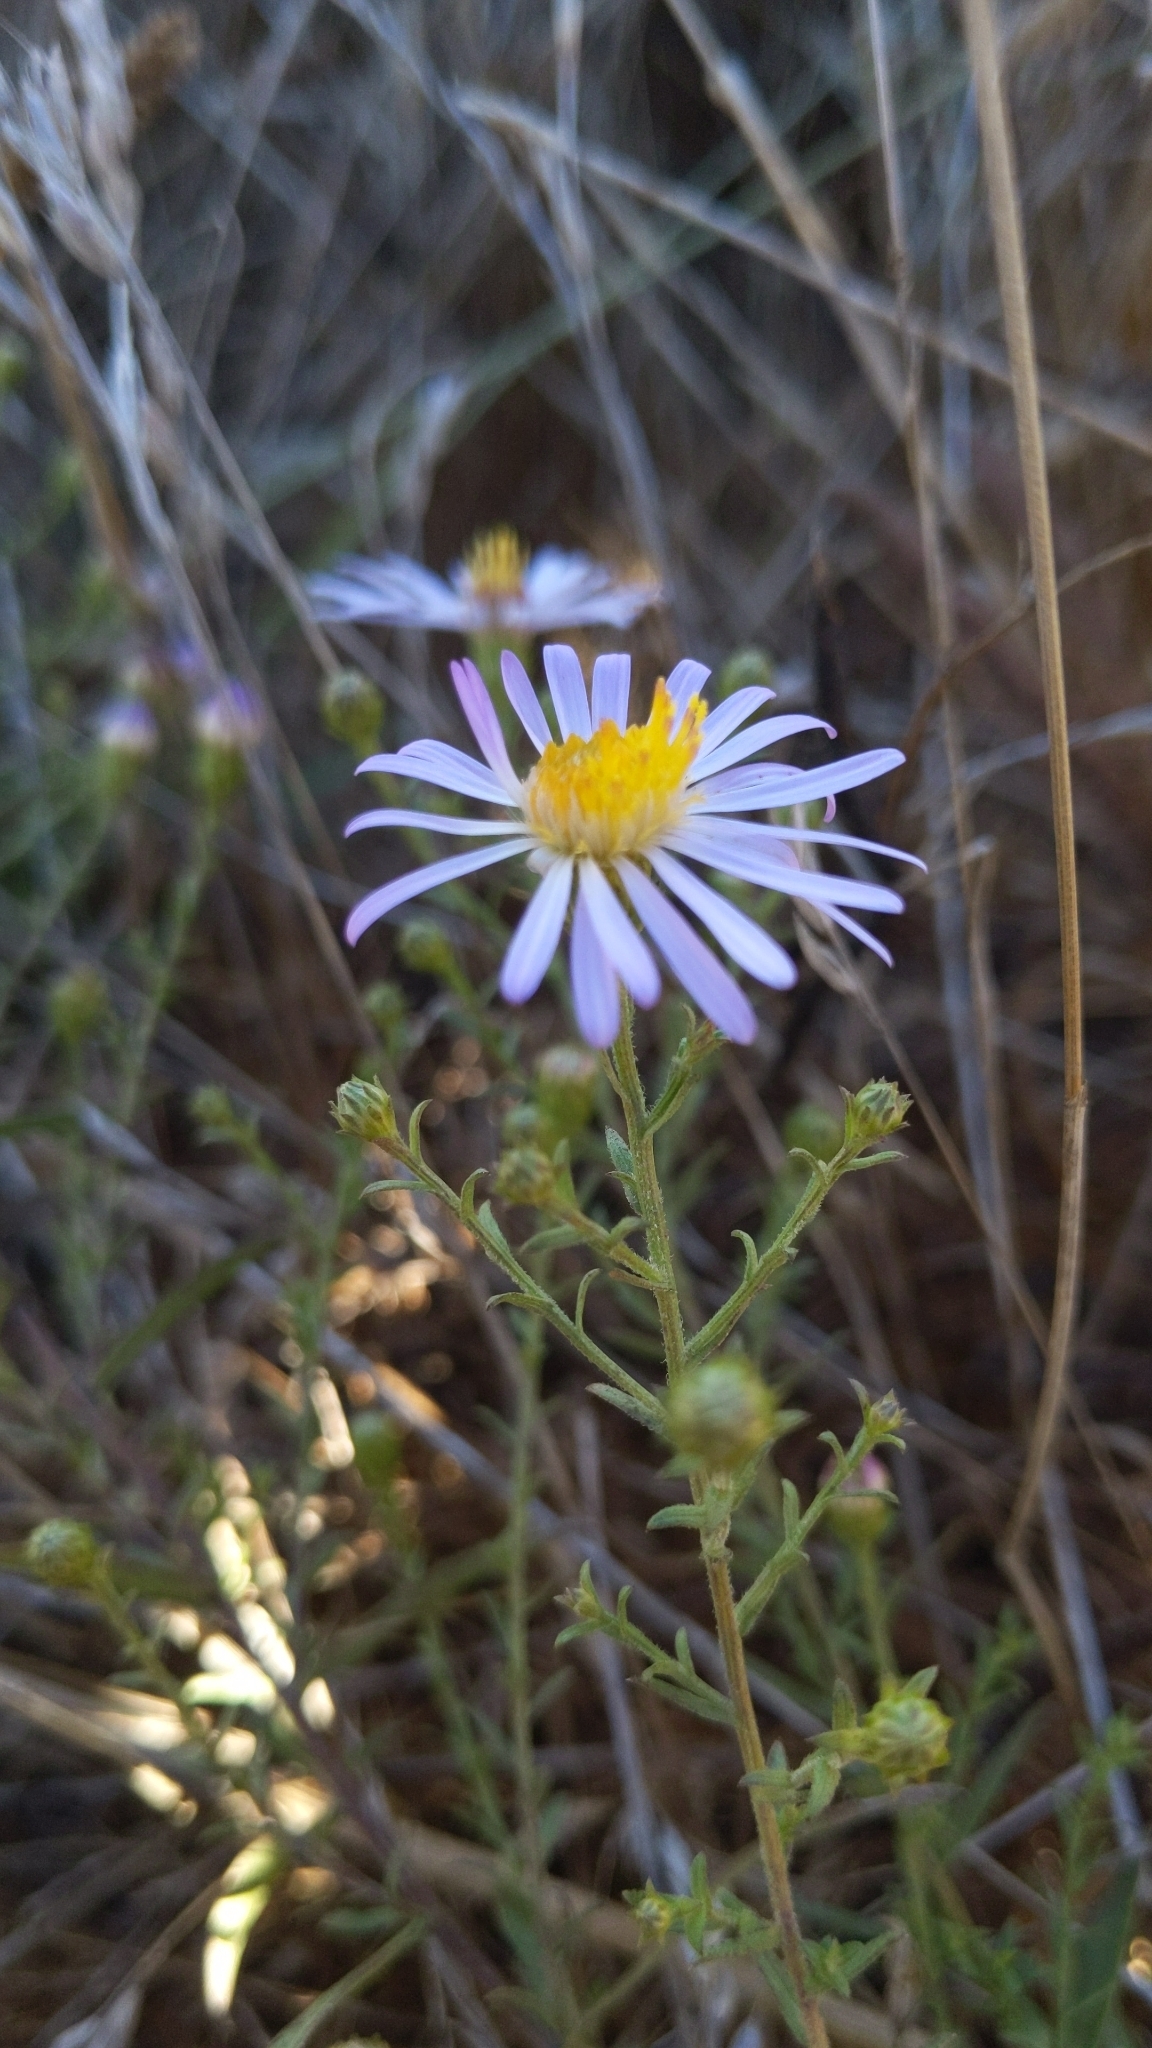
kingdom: Plantae
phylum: Tracheophyta
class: Magnoliopsida
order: Asterales
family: Asteraceae
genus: Symphyotrichum
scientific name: Symphyotrichum chilense
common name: Pacific aster
